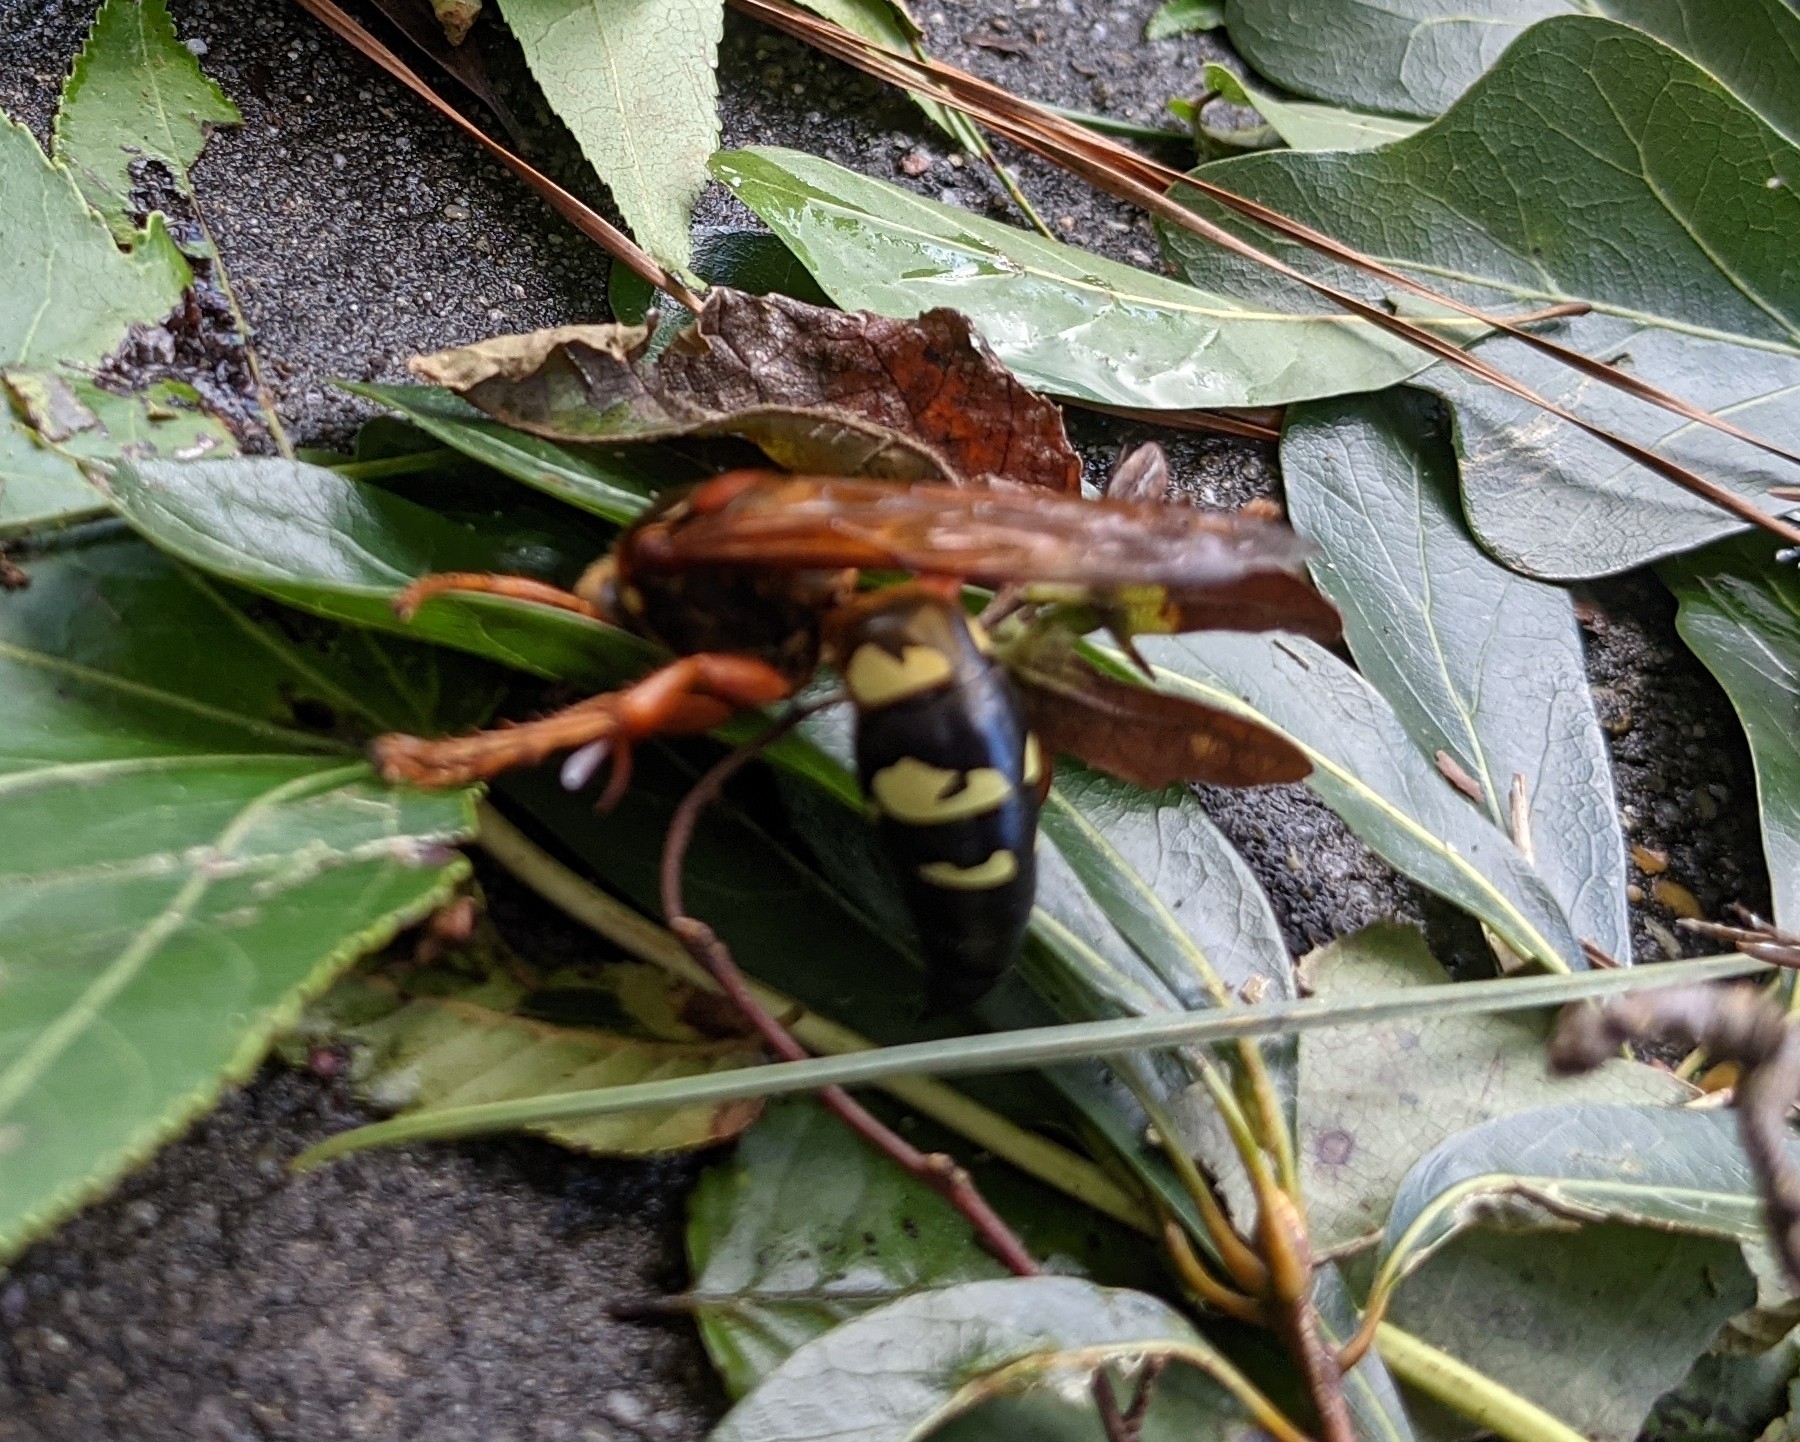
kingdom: Animalia
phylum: Arthropoda
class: Insecta
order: Hymenoptera
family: Crabronidae
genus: Sphecius
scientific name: Sphecius speciosus
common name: Cicada killer
